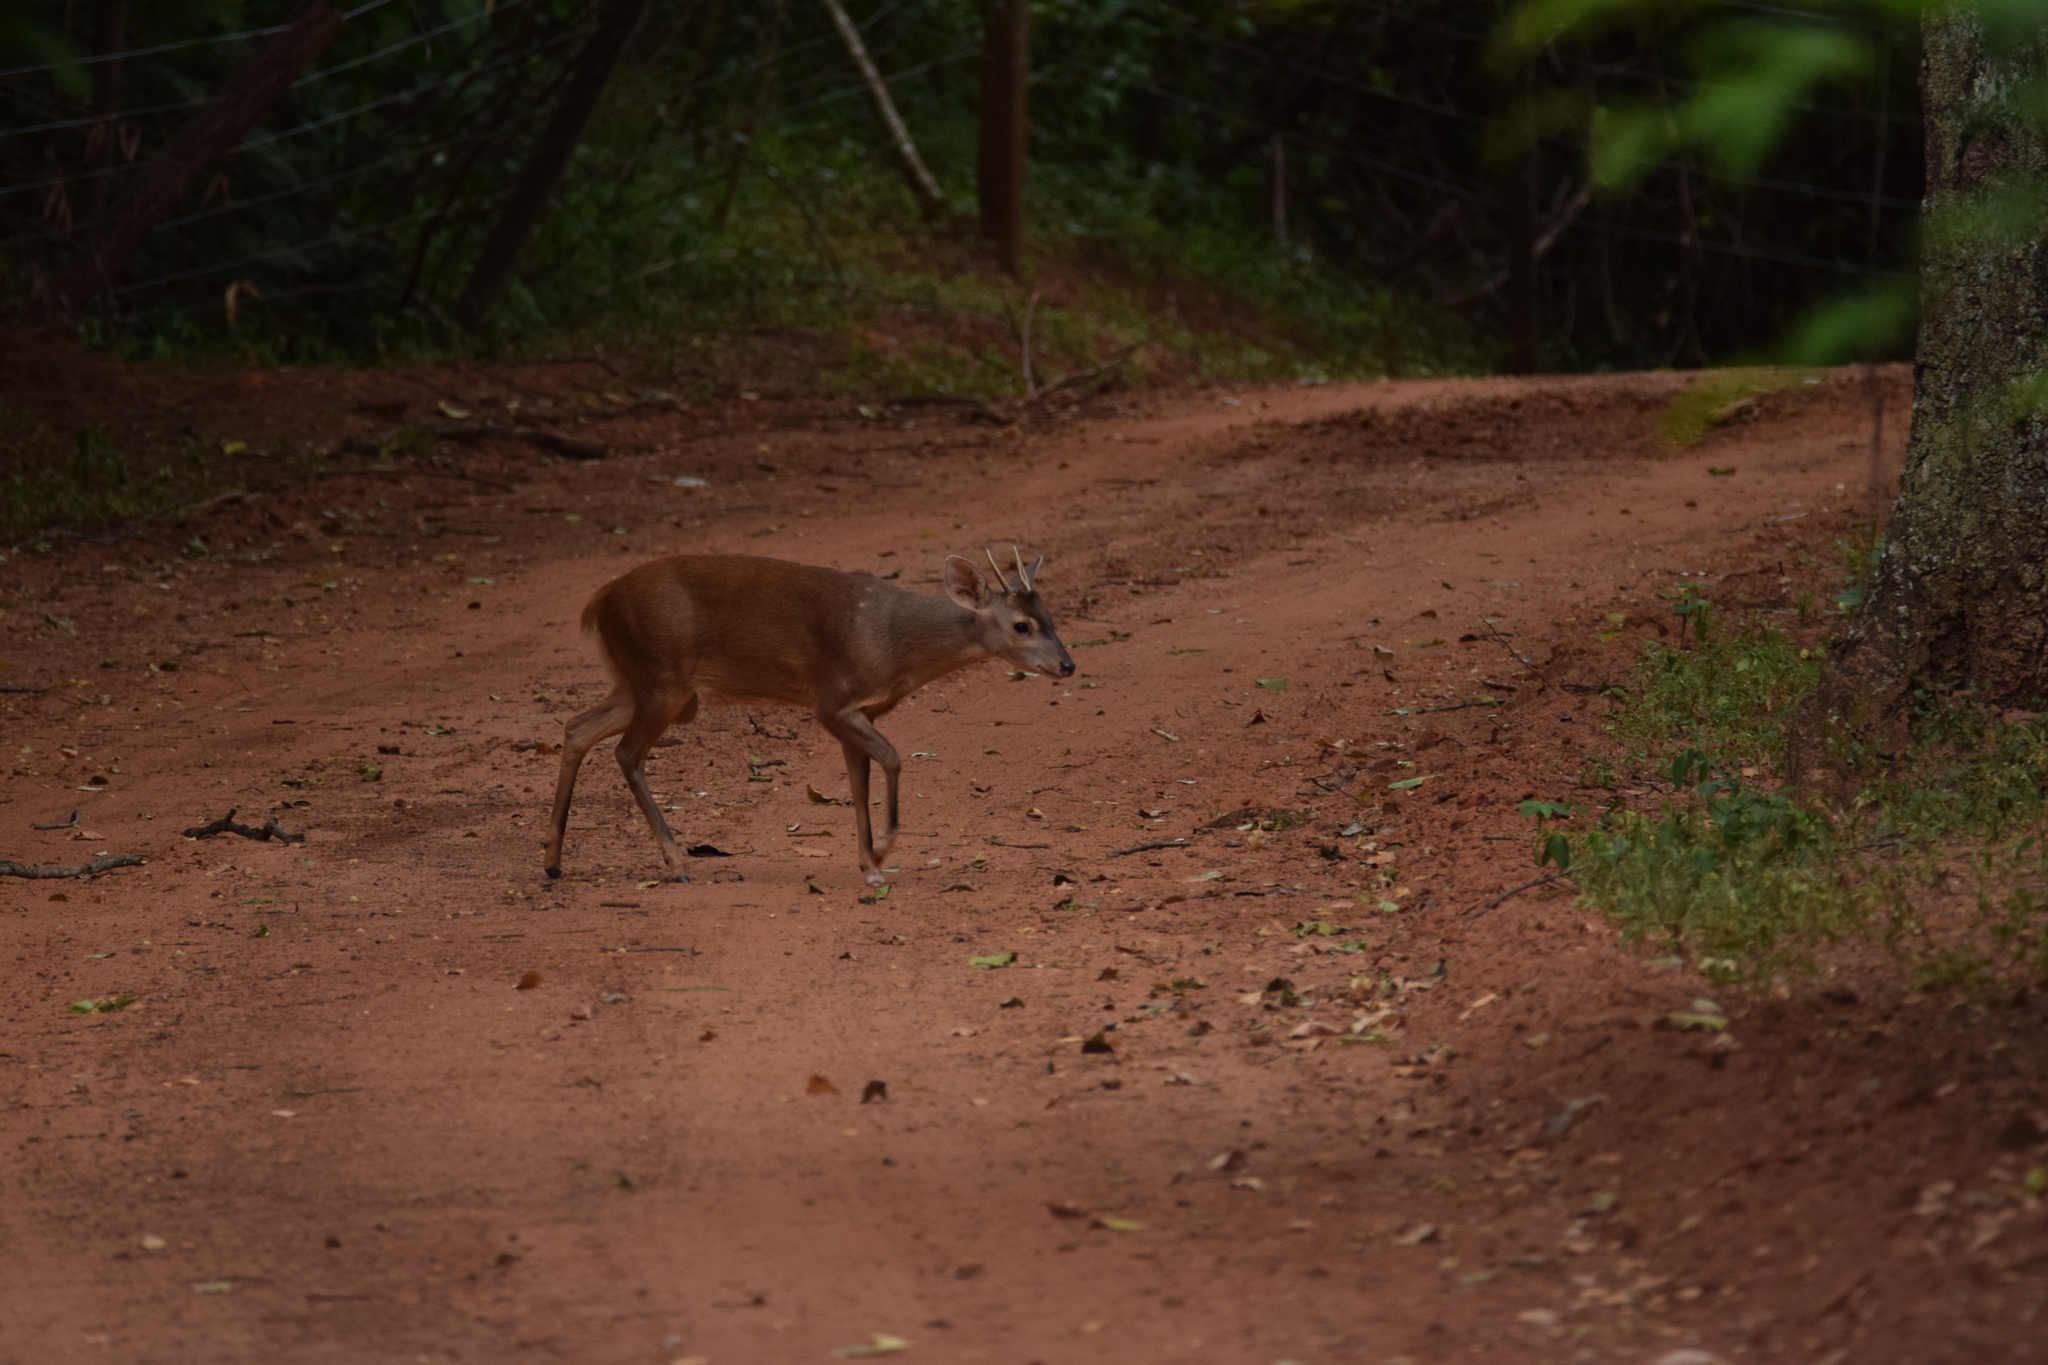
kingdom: Animalia
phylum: Chordata
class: Mammalia
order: Artiodactyla
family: Cervidae
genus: Mazama
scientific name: Mazama gouazoubira
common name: Gray brocket
